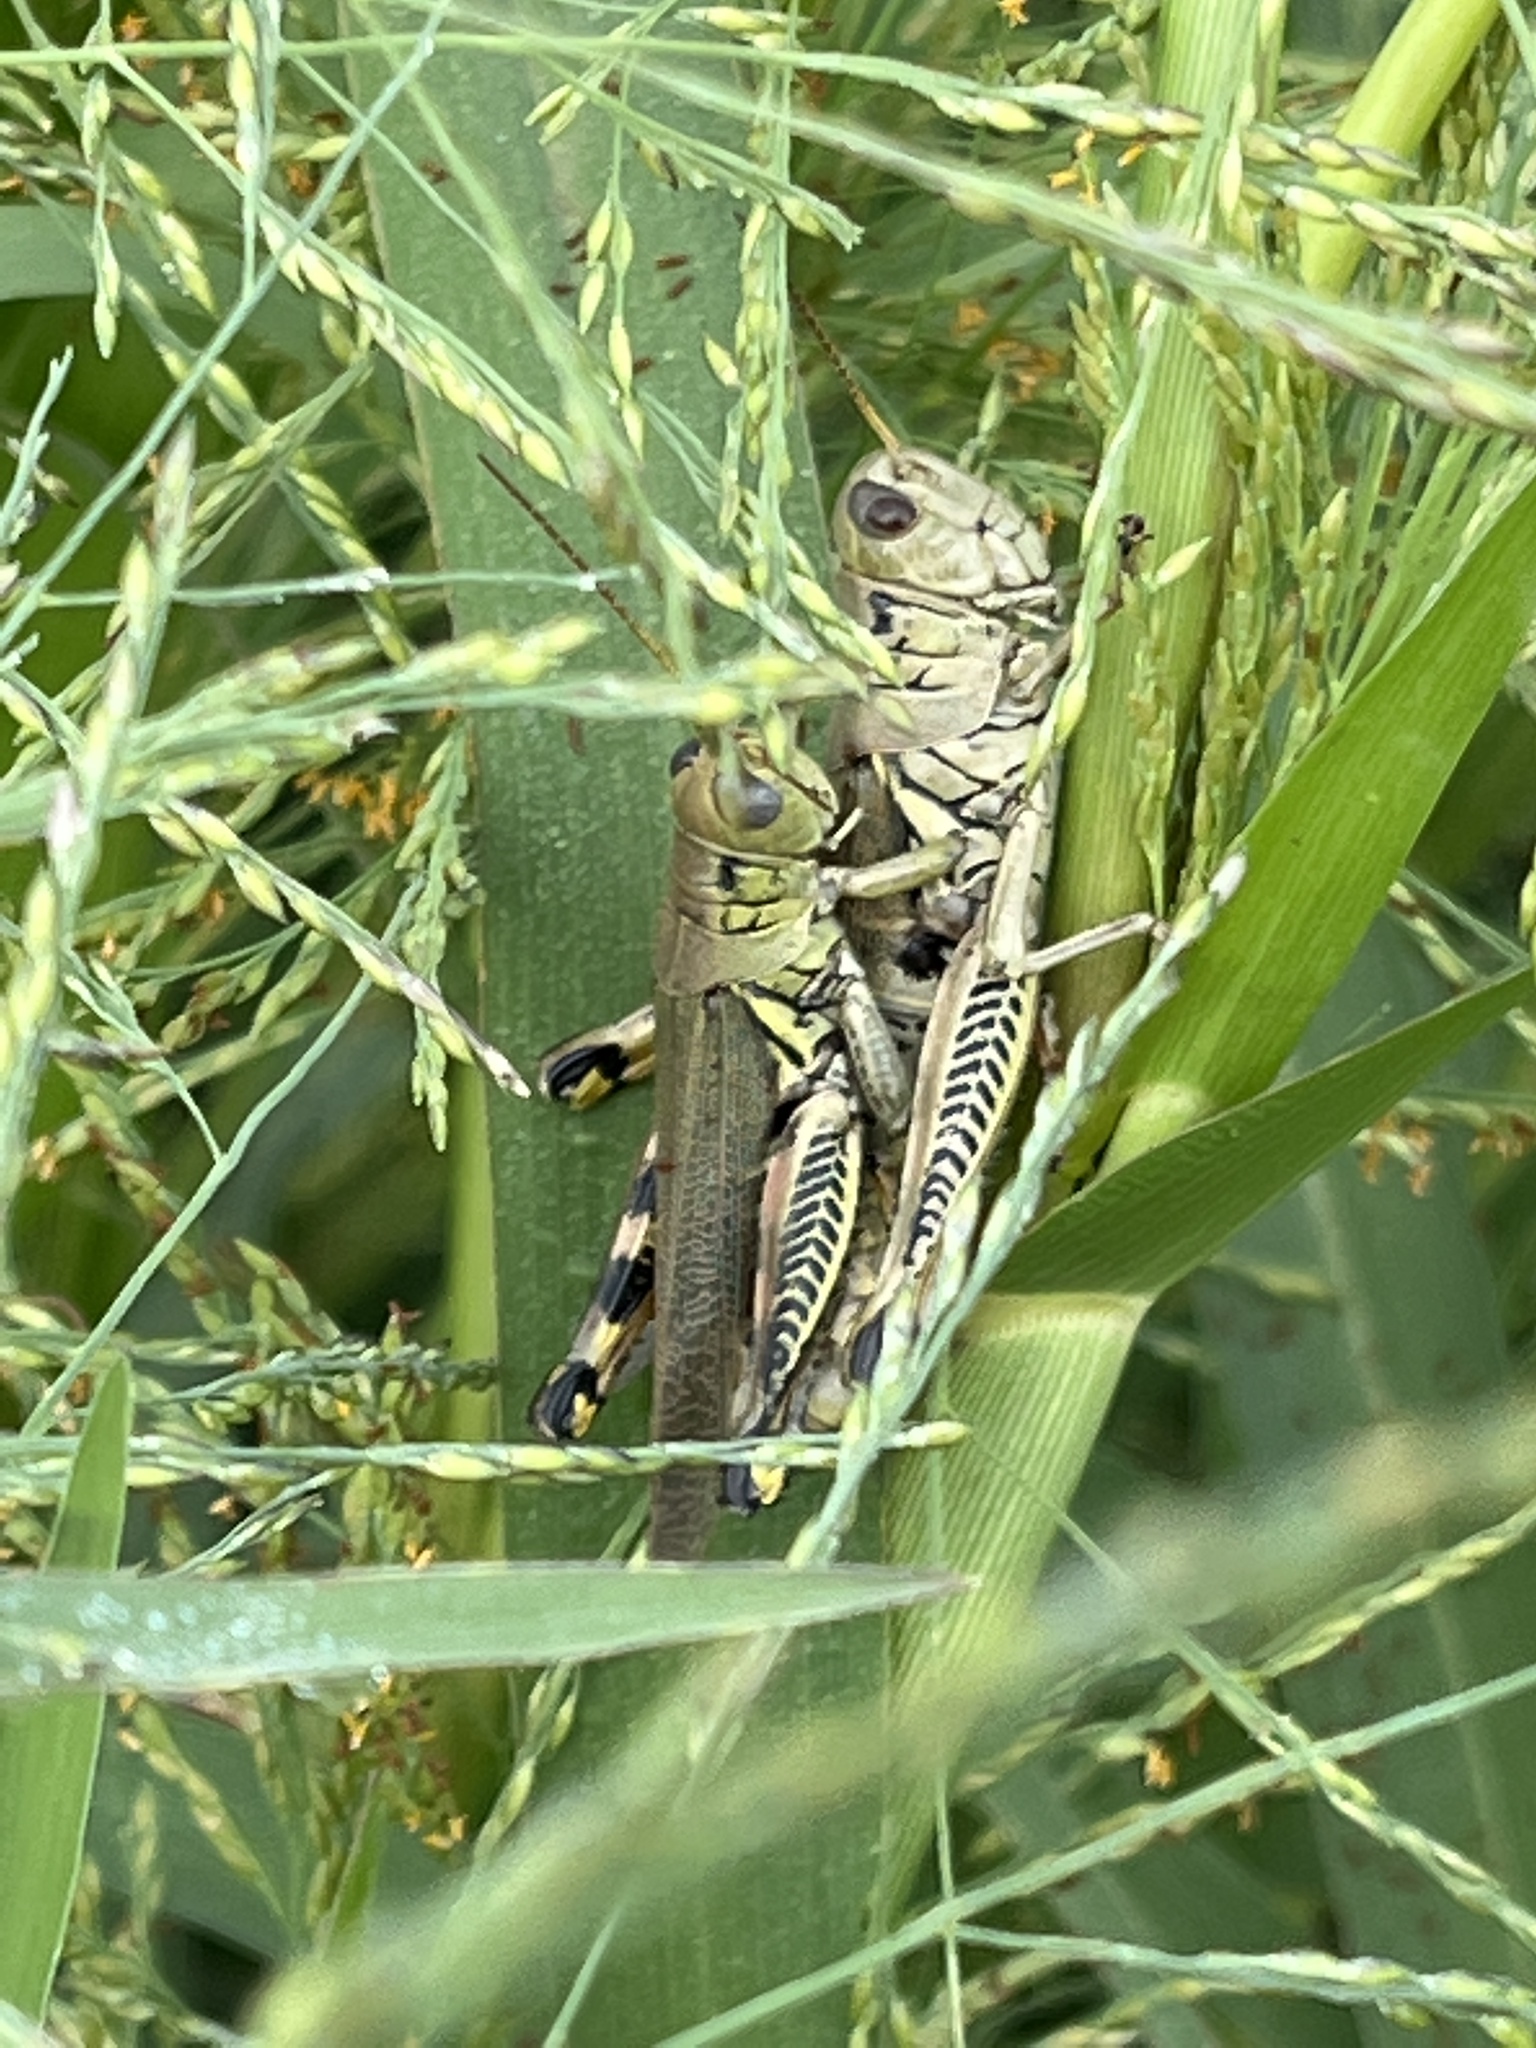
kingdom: Animalia
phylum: Arthropoda
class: Insecta
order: Orthoptera
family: Acrididae
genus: Melanoplus
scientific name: Melanoplus differentialis
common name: Differential grasshopper
